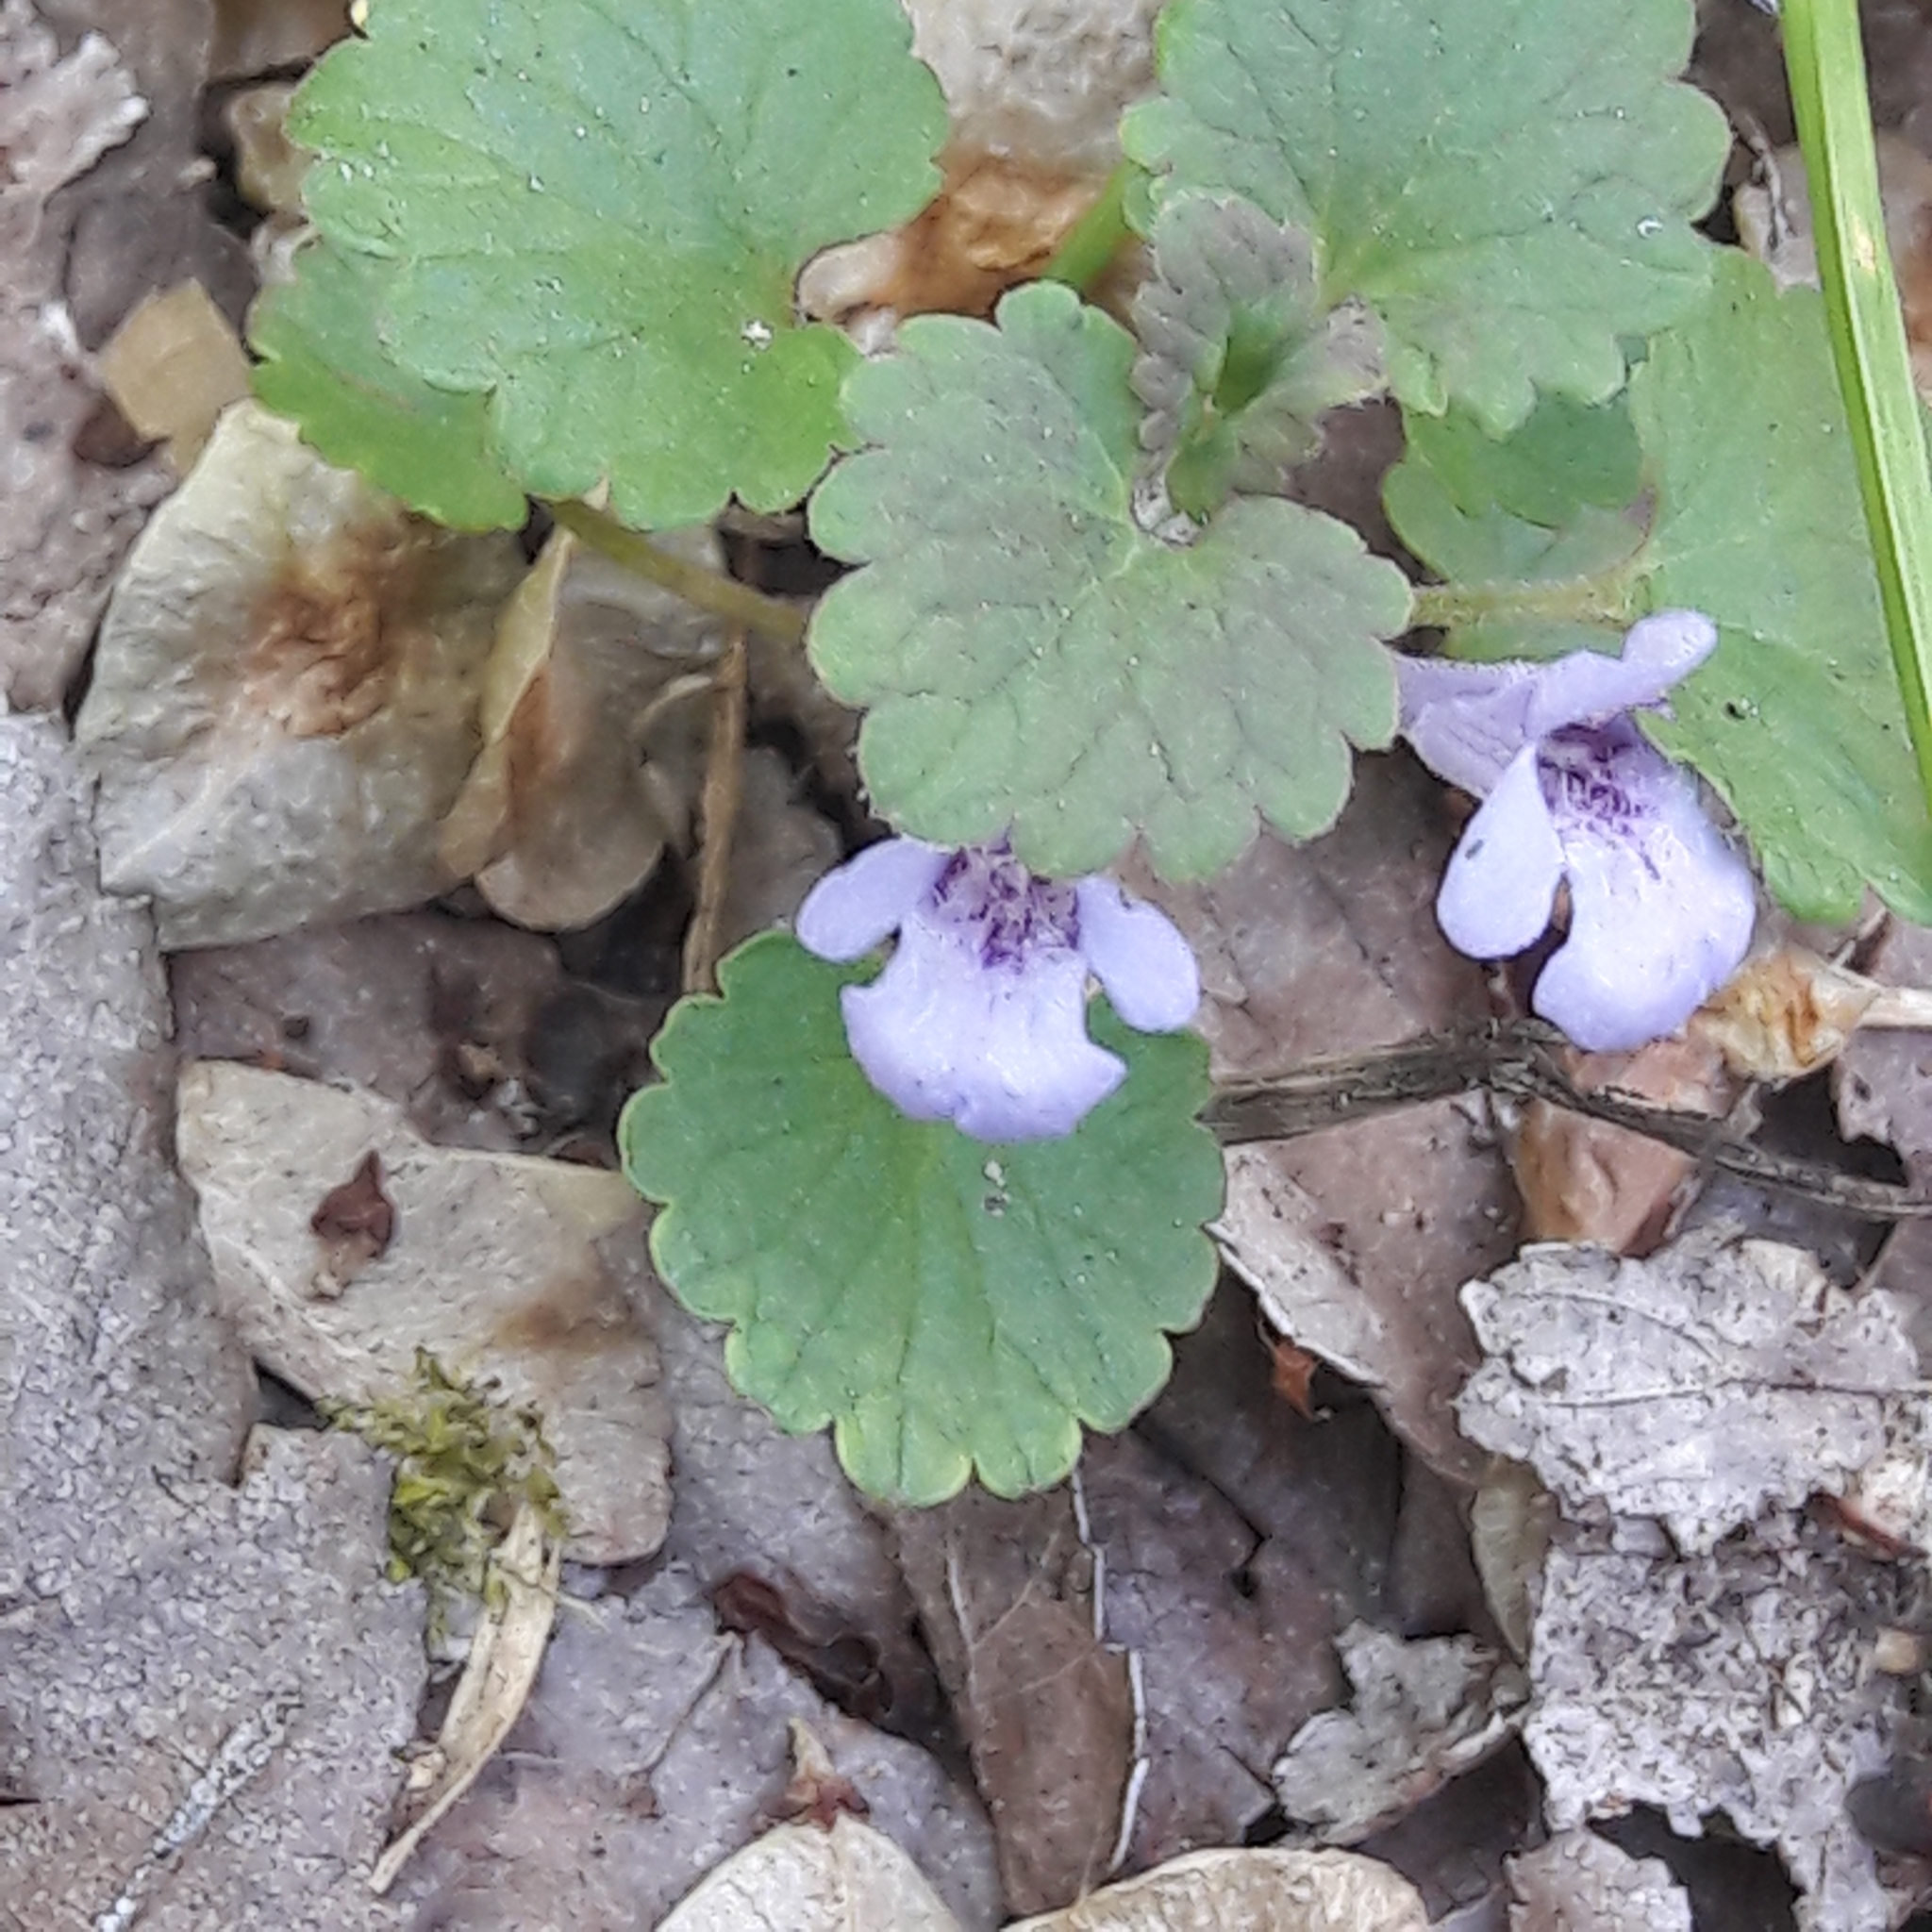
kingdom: Plantae
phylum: Tracheophyta
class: Magnoliopsida
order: Lamiales
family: Lamiaceae
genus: Glechoma
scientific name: Glechoma hederacea
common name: Ground ivy
